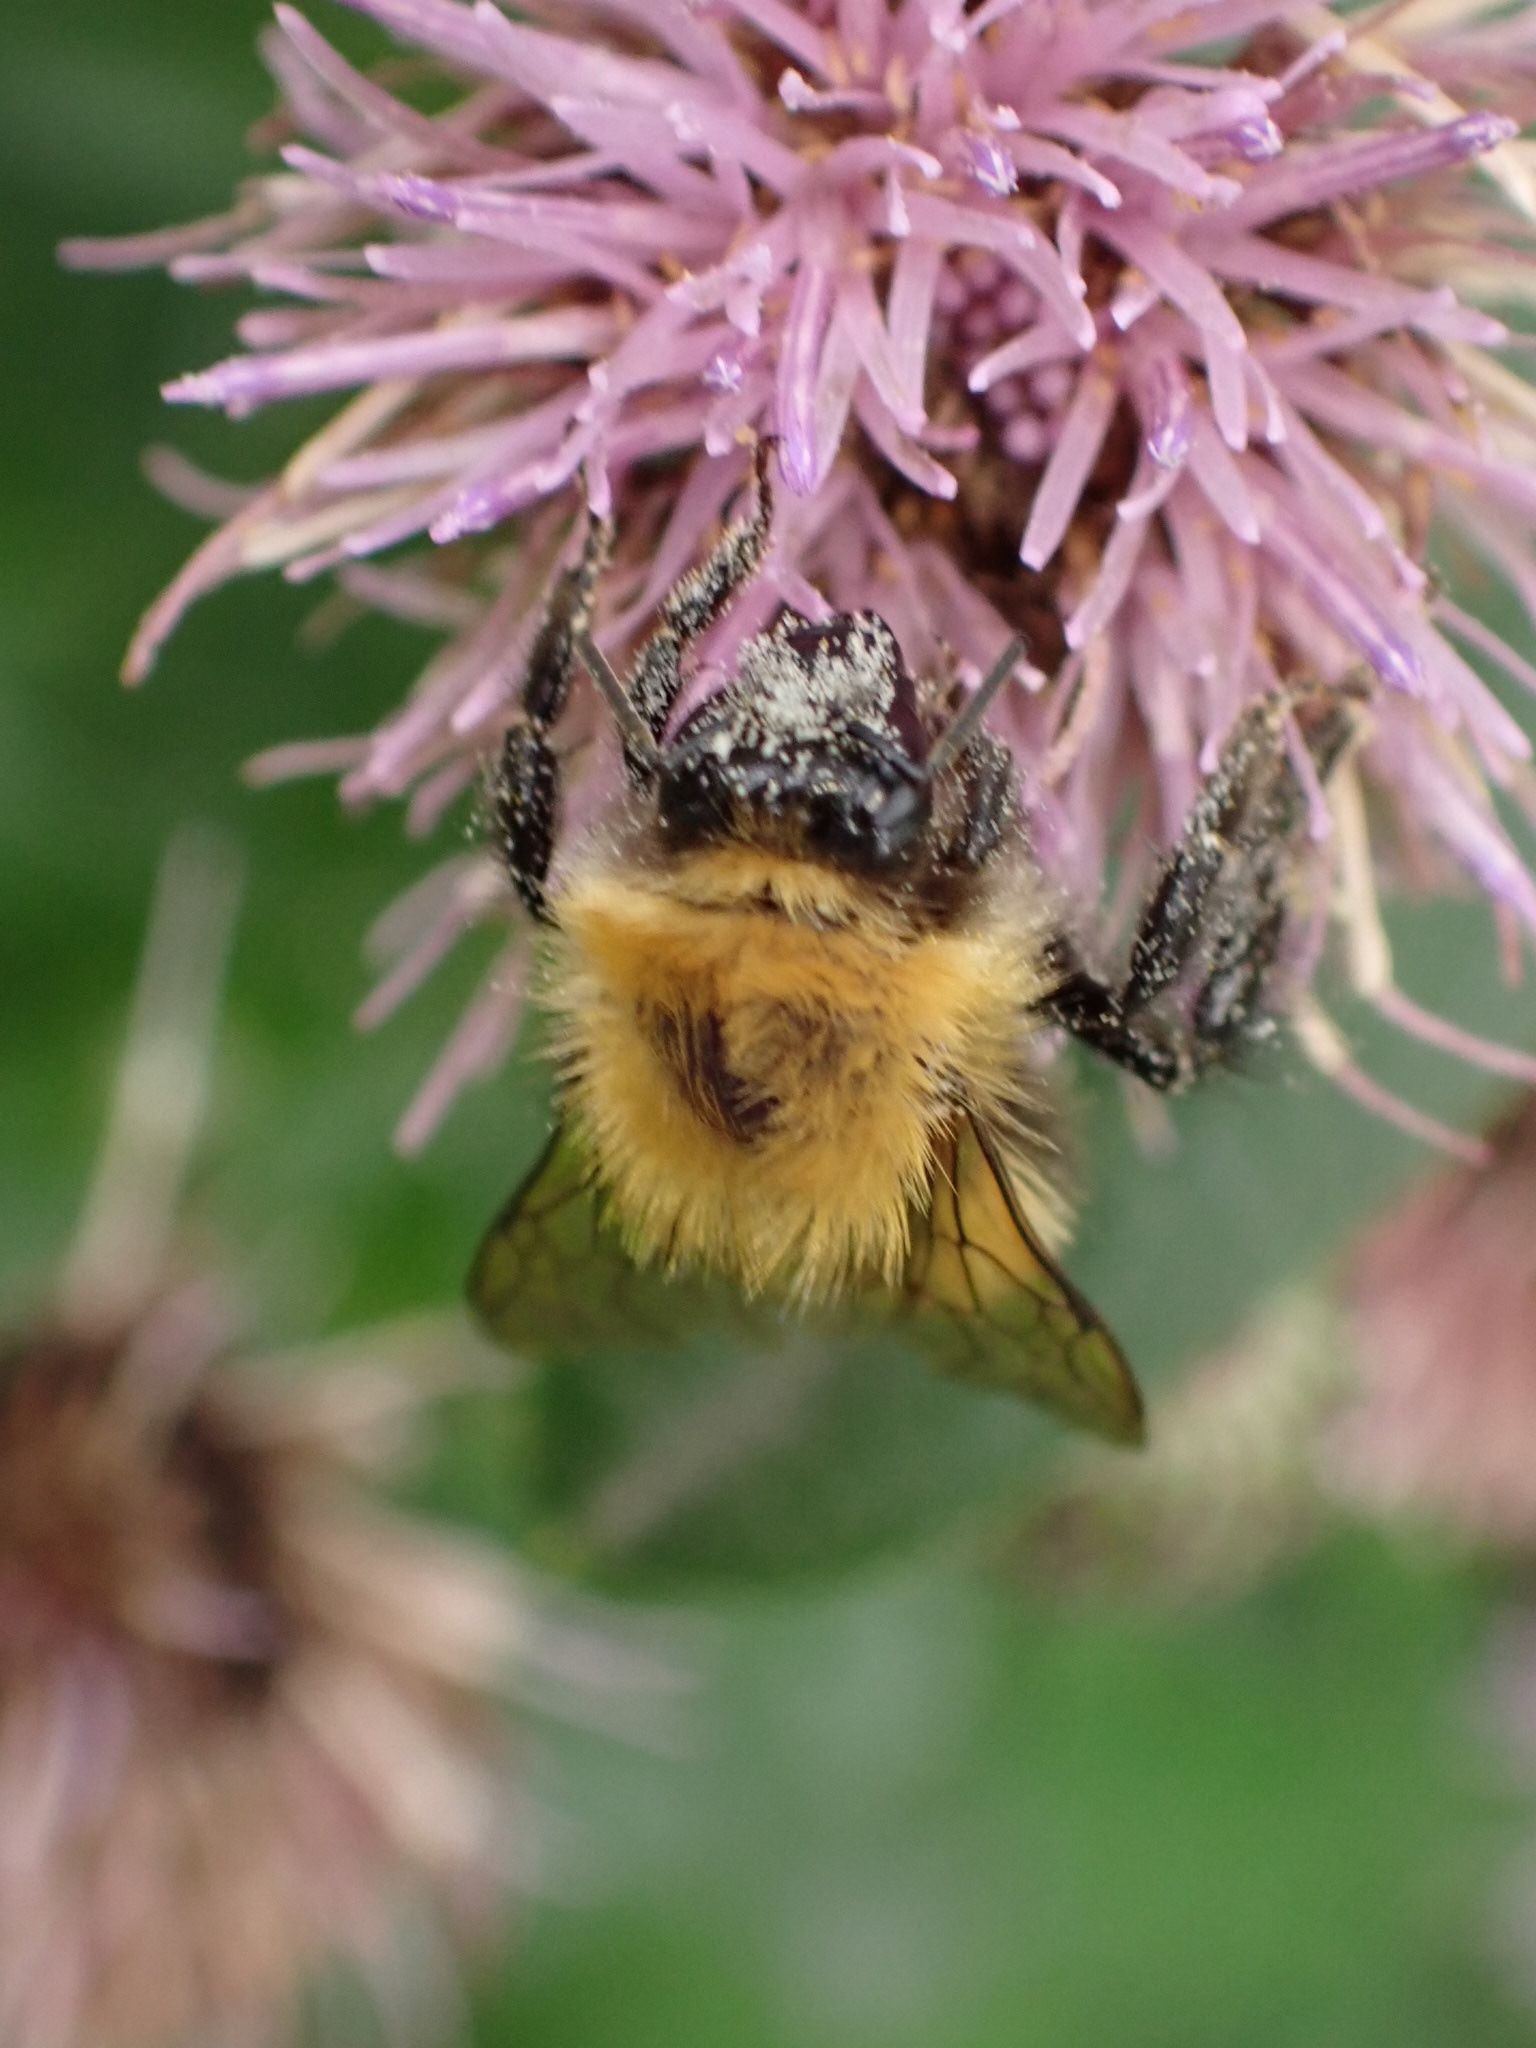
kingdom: Animalia
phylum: Arthropoda
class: Insecta
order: Hymenoptera
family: Apidae
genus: Bombus
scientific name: Bombus pascuorum
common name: Common carder bee
